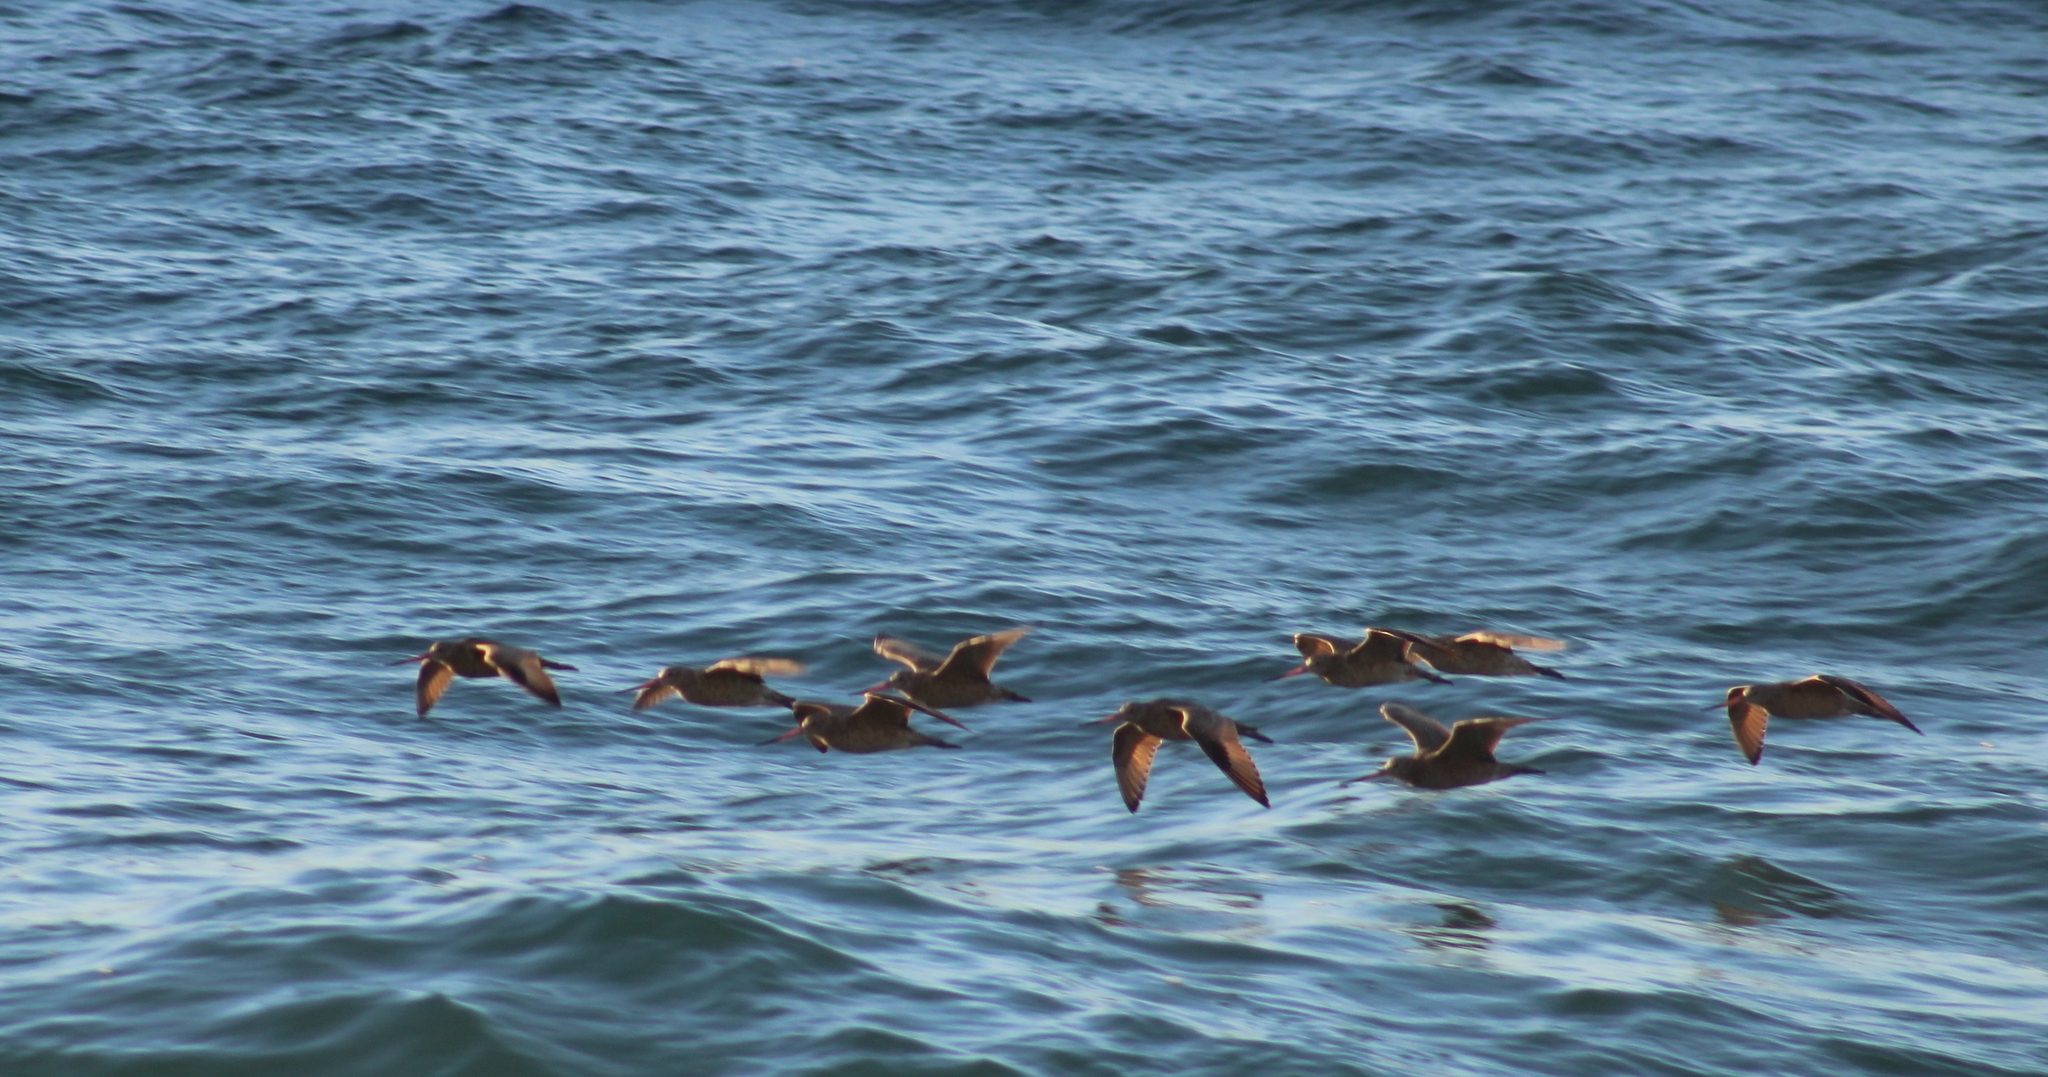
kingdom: Animalia
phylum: Chordata
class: Aves
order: Charadriiformes
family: Scolopacidae
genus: Limosa
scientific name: Limosa fedoa
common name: Marbled godwit
